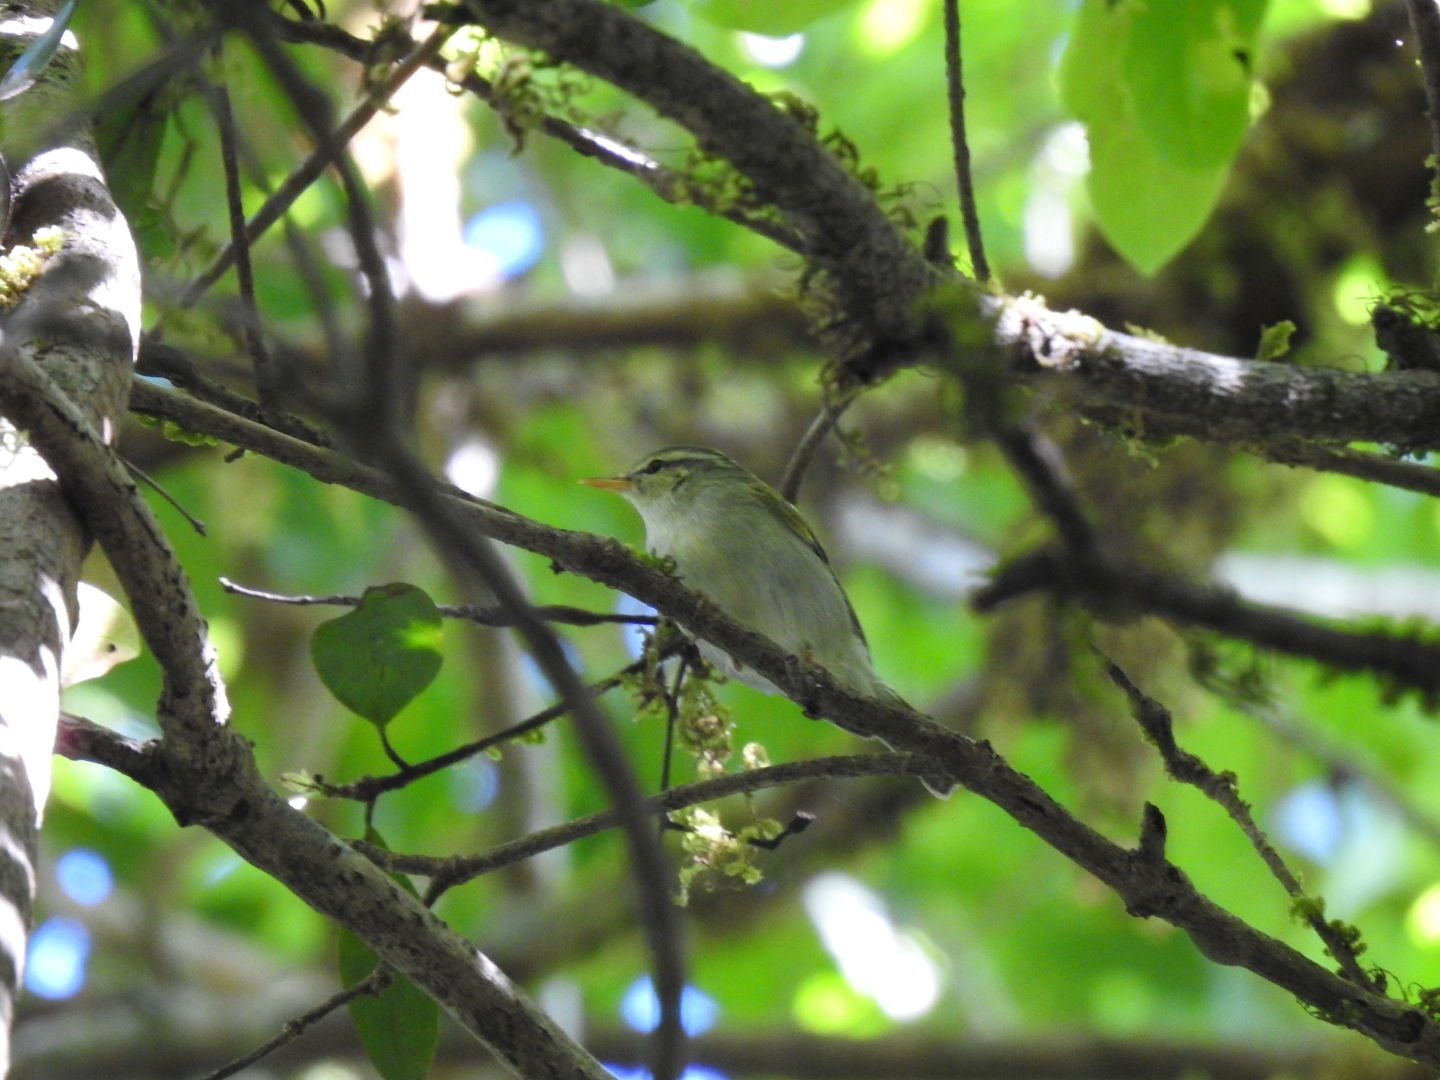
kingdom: Animalia
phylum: Chordata
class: Aves
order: Passeriformes
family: Phylloscopidae
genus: Phylloscopus
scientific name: Phylloscopus occipitalis
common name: Western crowned warbler
